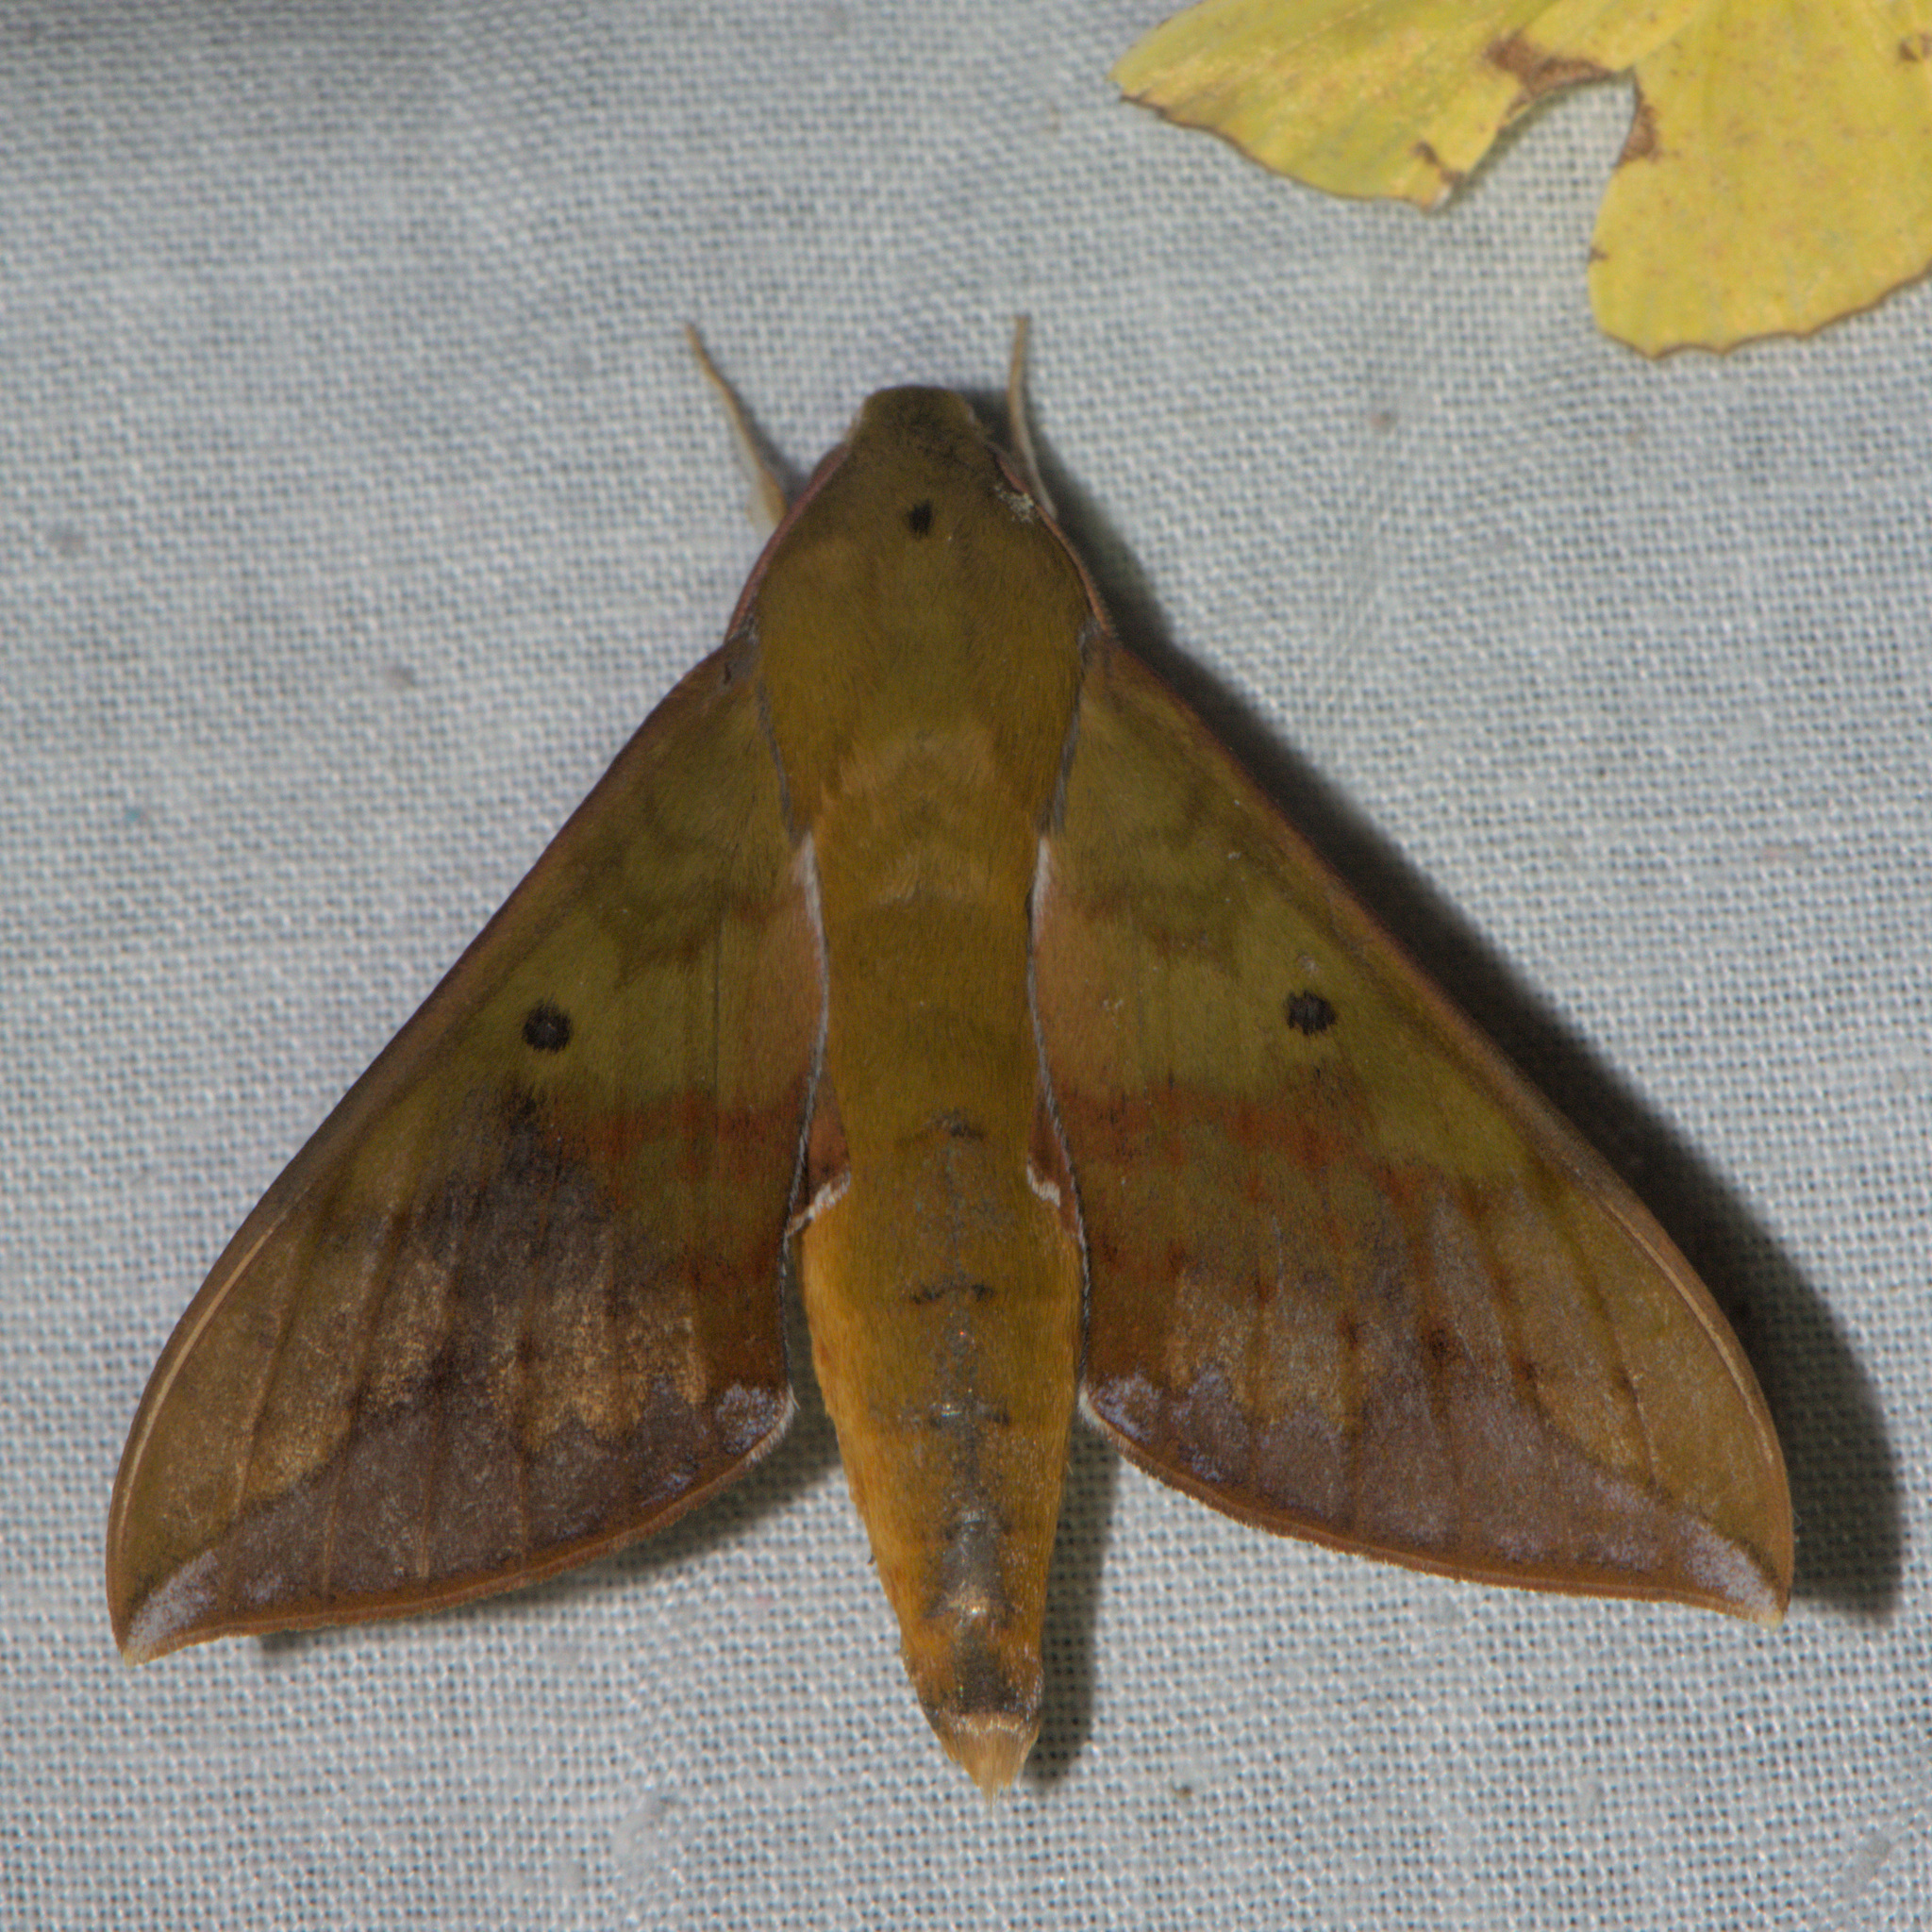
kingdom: Animalia
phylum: Arthropoda
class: Insecta
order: Lepidoptera
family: Sphingidae
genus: Rhagastis
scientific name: Rhagastis olivacea
